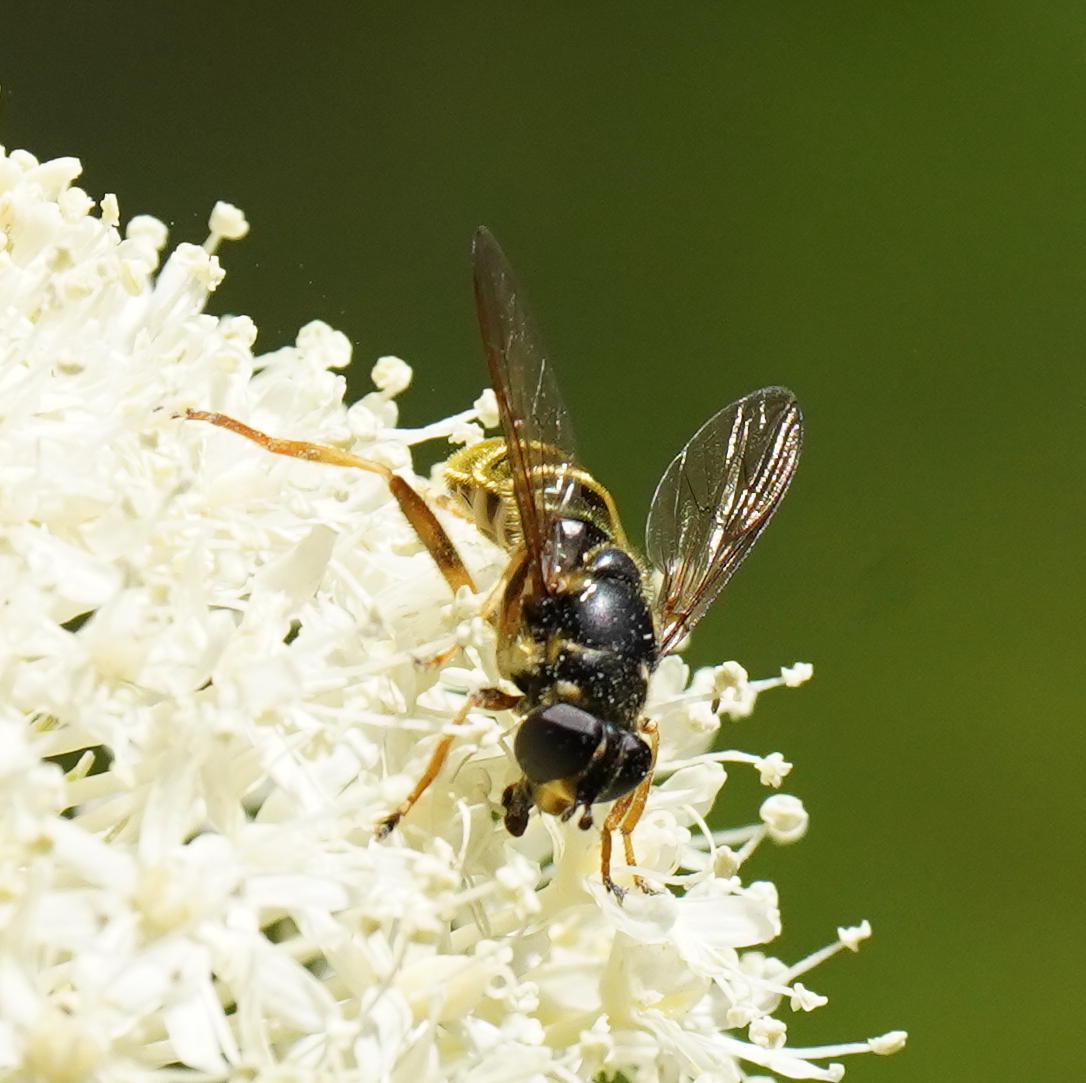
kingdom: Animalia
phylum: Arthropoda
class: Insecta
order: Diptera
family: Syrphidae
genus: Hadromyia
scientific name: Hadromyia pulchra
